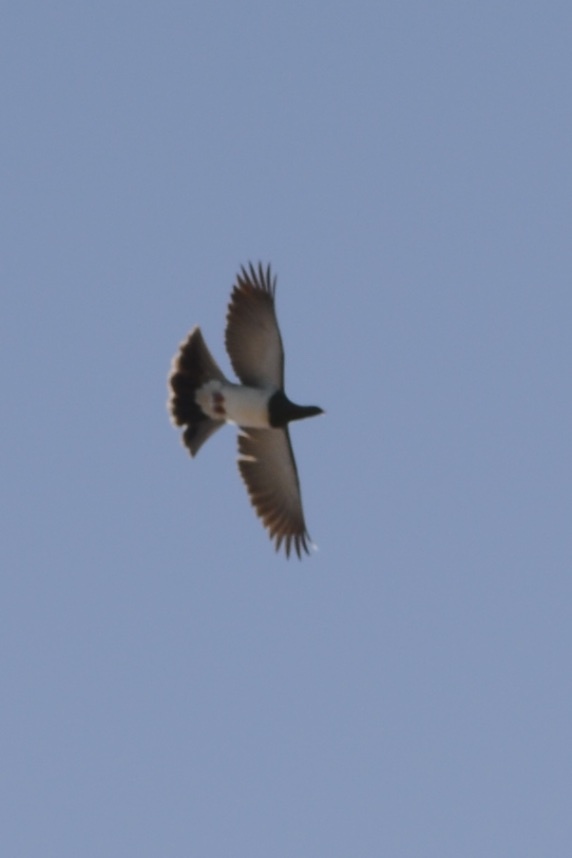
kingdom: Animalia
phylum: Chordata
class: Aves
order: Columbiformes
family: Columbidae
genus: Hemiphaga
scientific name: Hemiphaga novaeseelandiae
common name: New zealand pigeon
